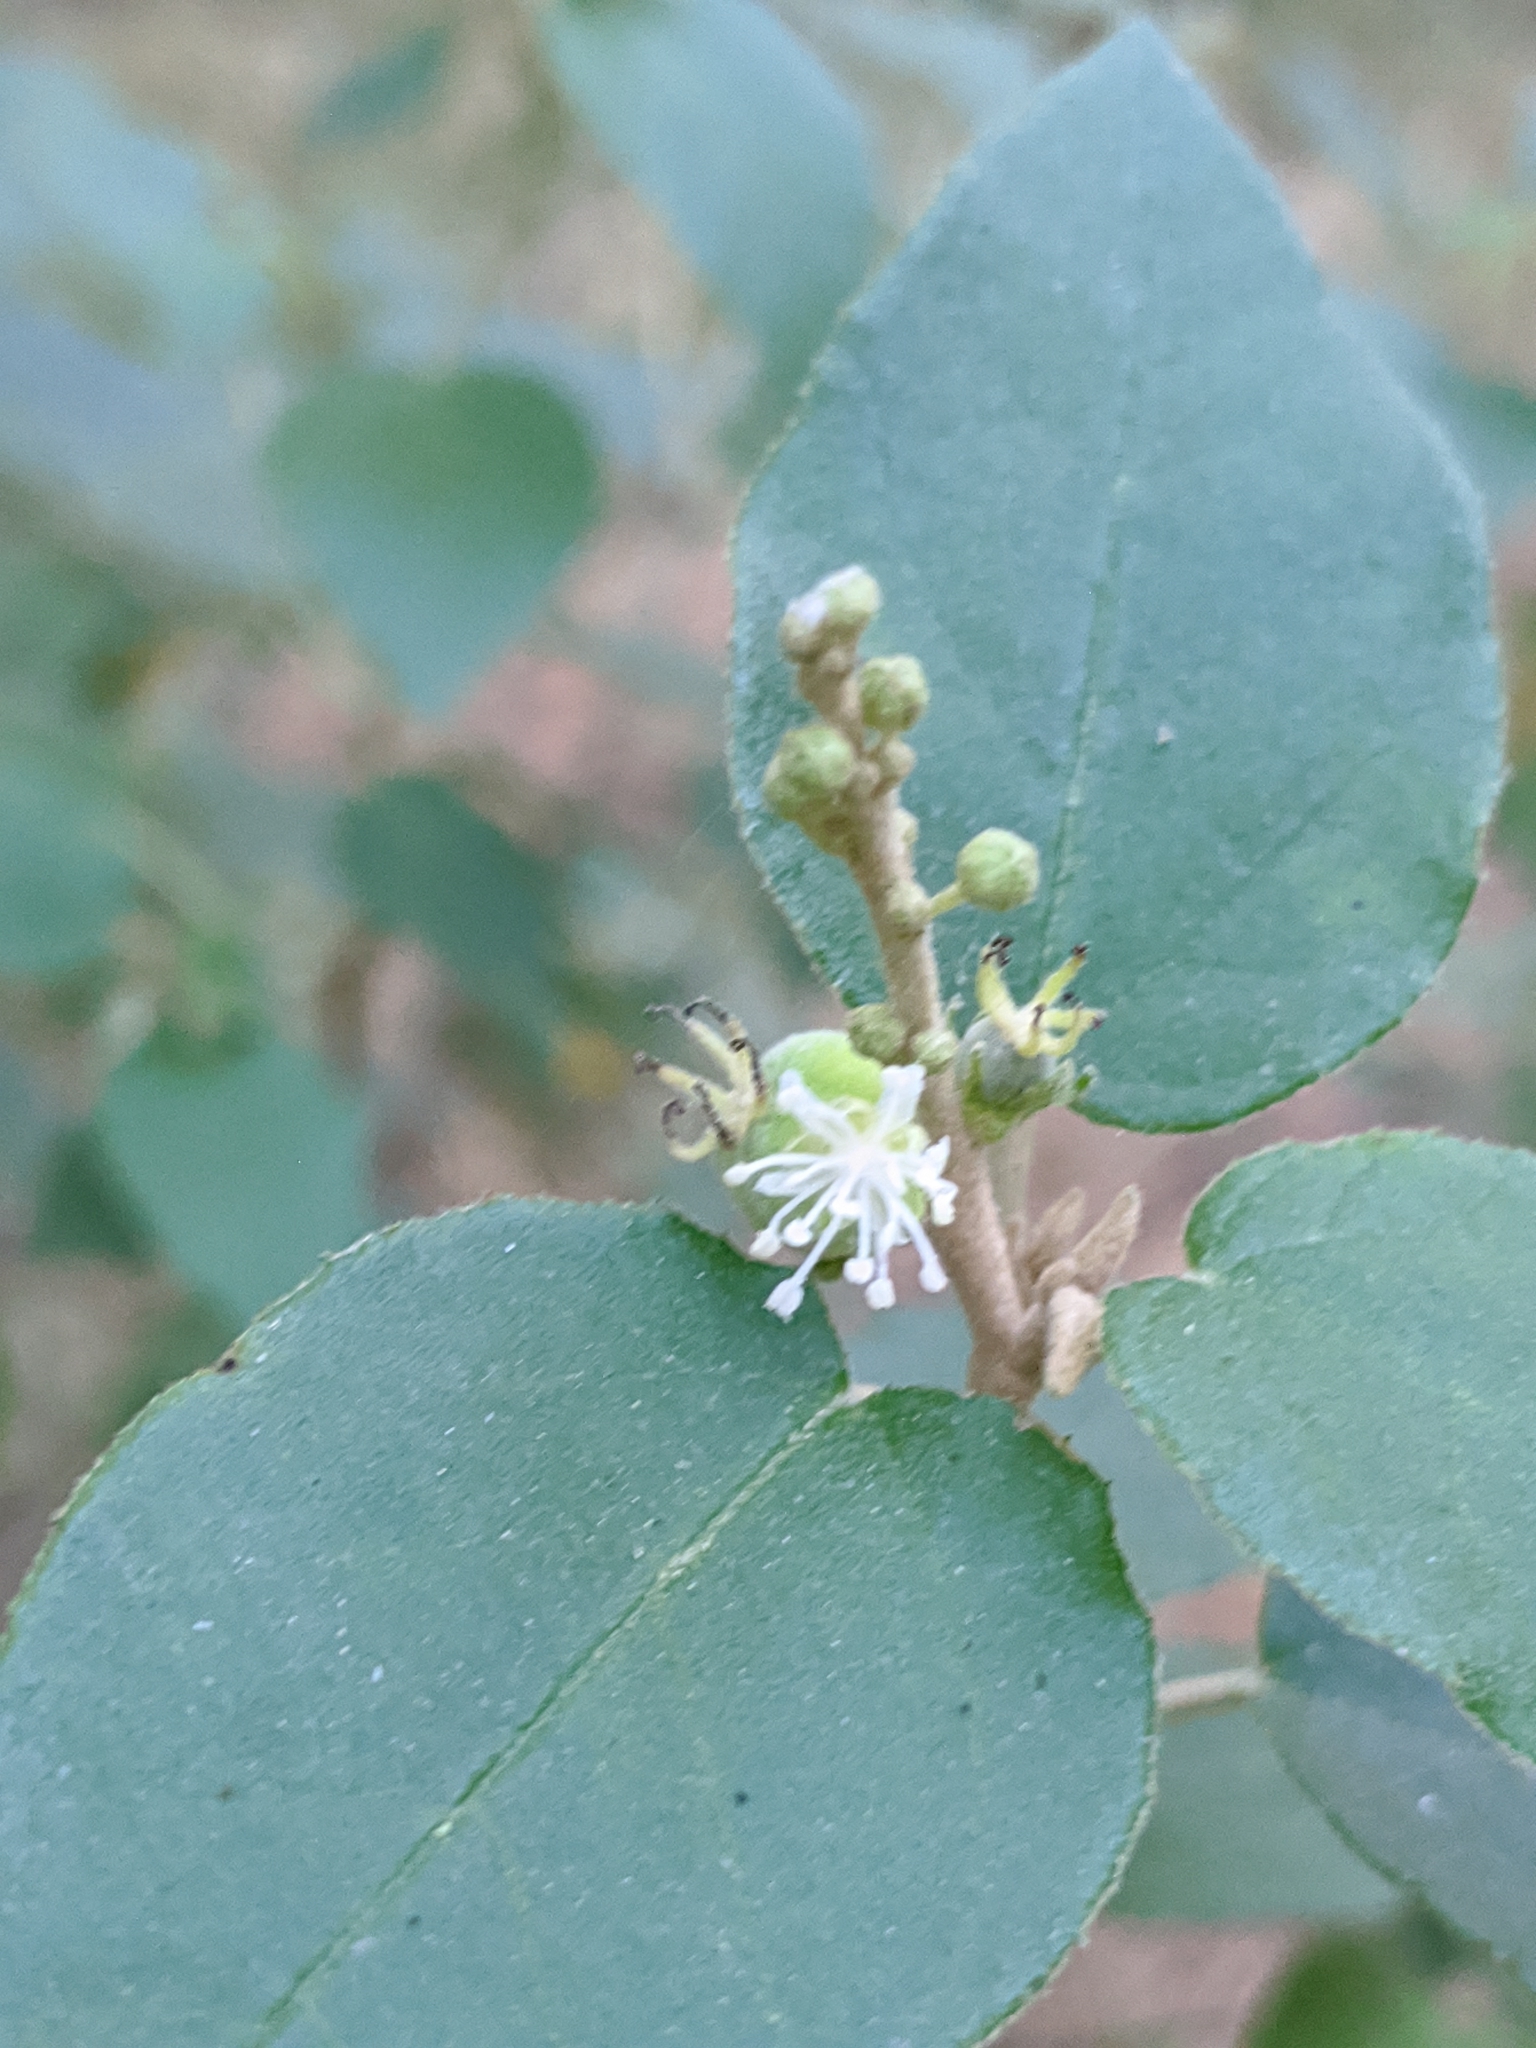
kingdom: Plantae
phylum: Tracheophyta
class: Magnoliopsida
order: Malpighiales
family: Euphorbiaceae
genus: Croton
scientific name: Croton fruticulosus
